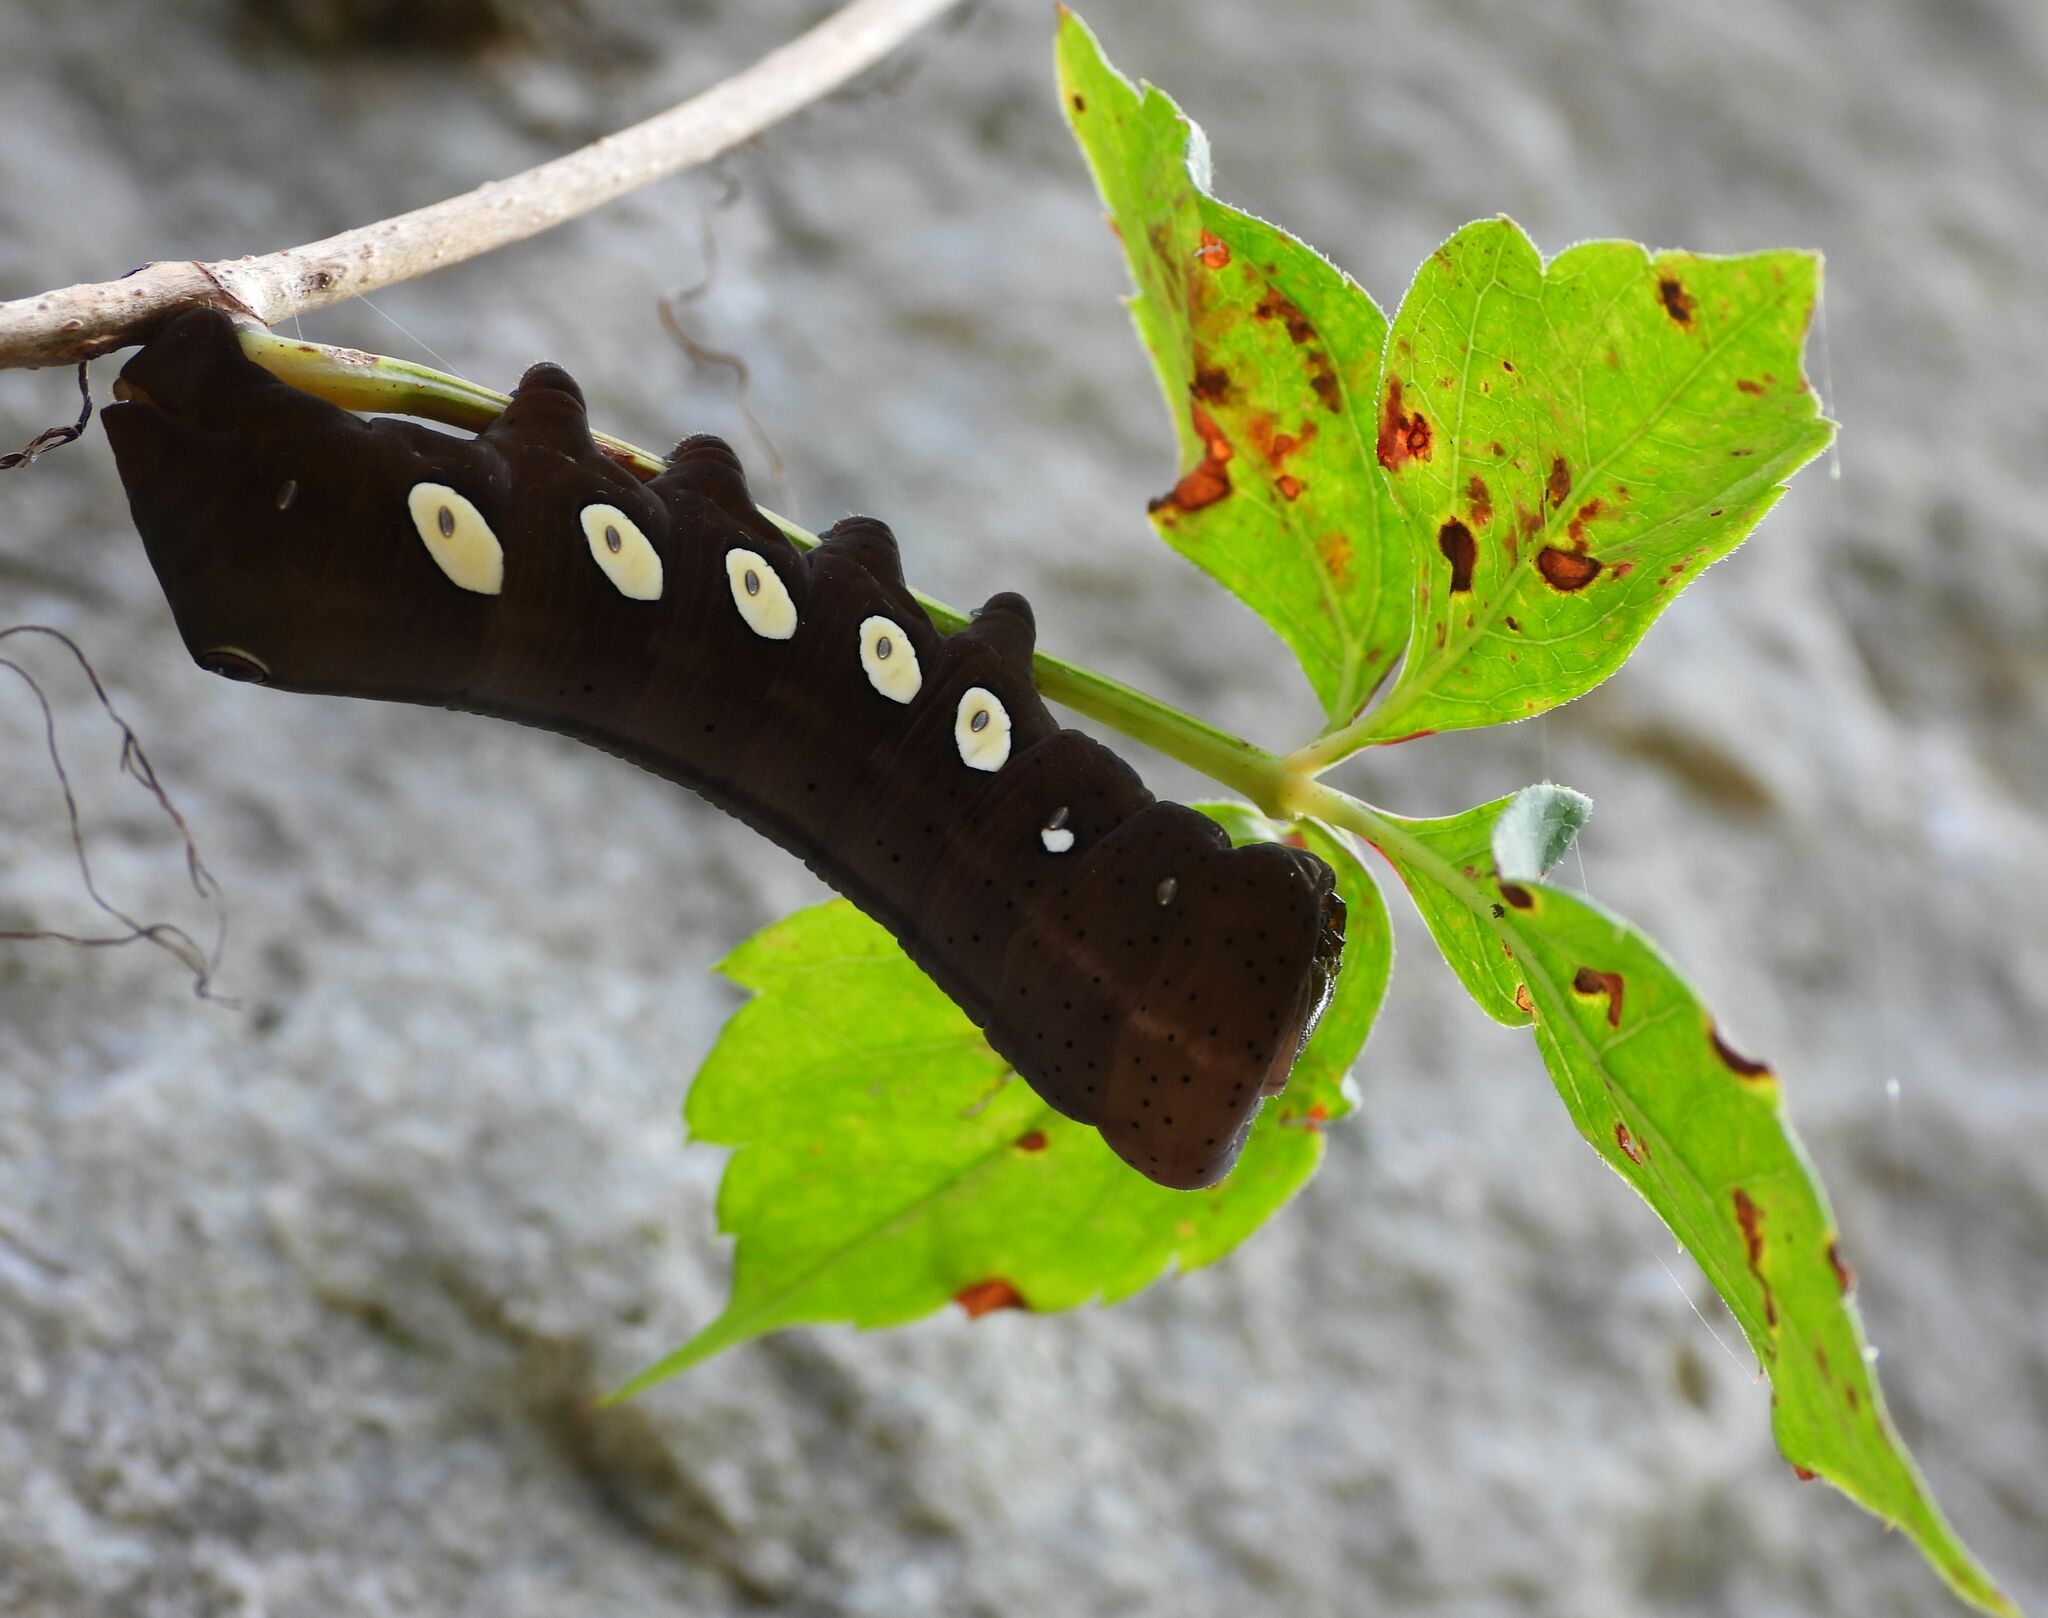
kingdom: Animalia
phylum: Arthropoda
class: Insecta
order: Lepidoptera
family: Sphingidae
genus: Eumorpha
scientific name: Eumorpha pandorus
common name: Pandora sphinx
